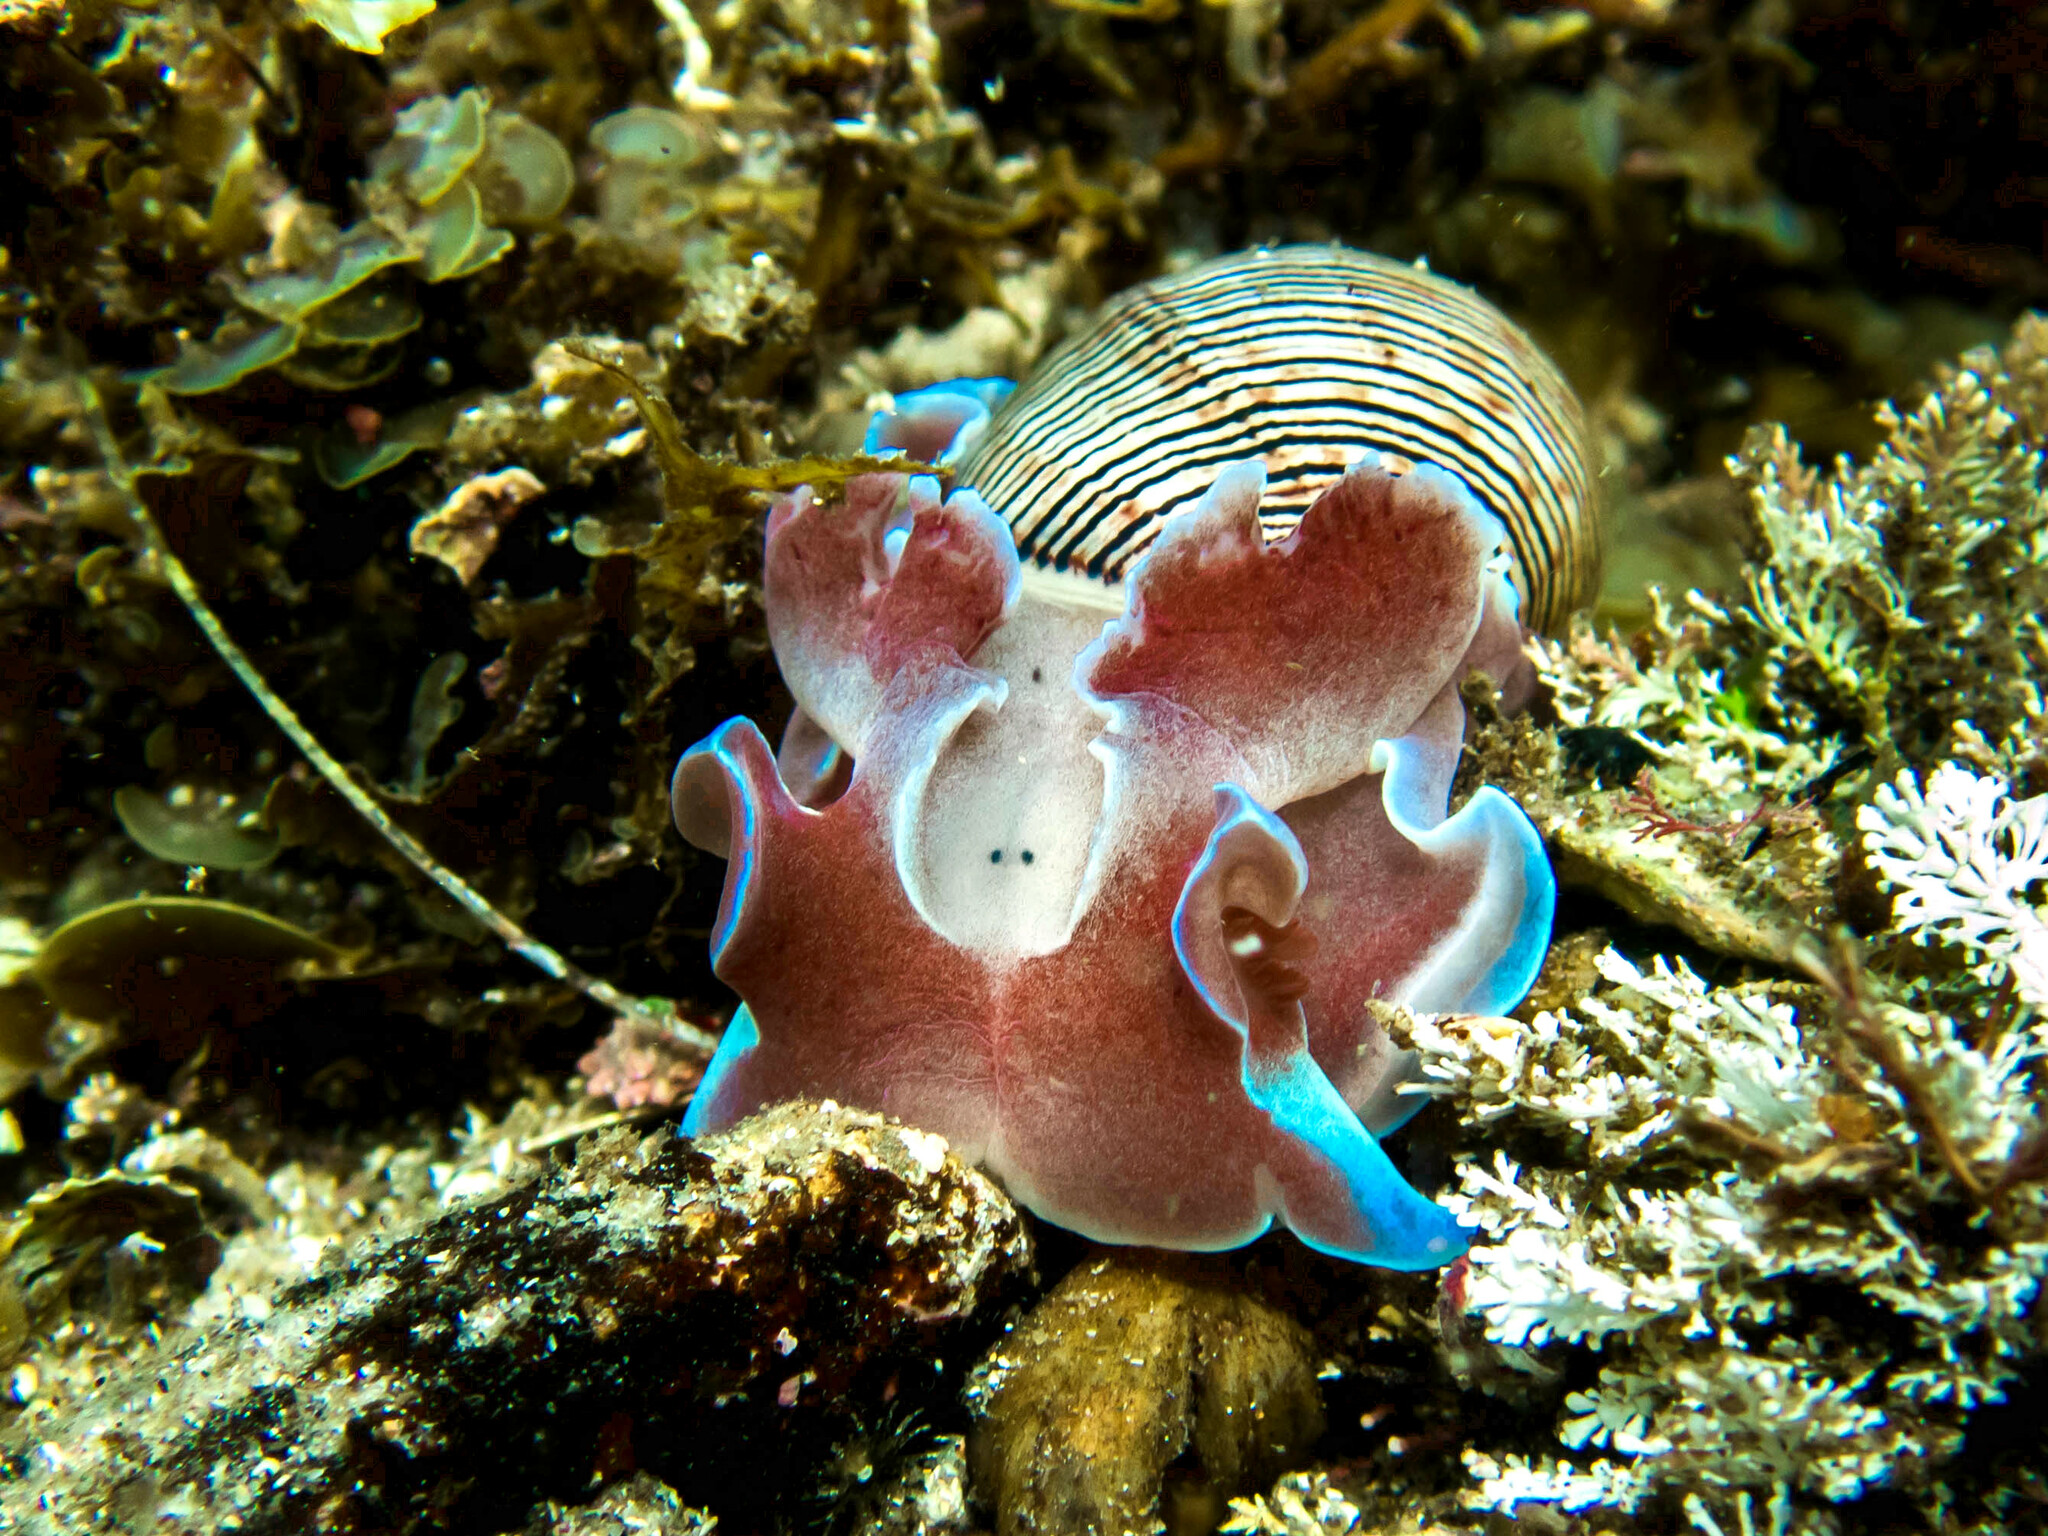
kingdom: Animalia
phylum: Mollusca
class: Gastropoda
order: Cephalaspidea
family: Aplustridae
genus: Hydatina
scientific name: Hydatina physis
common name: Brown-line paperbubble
